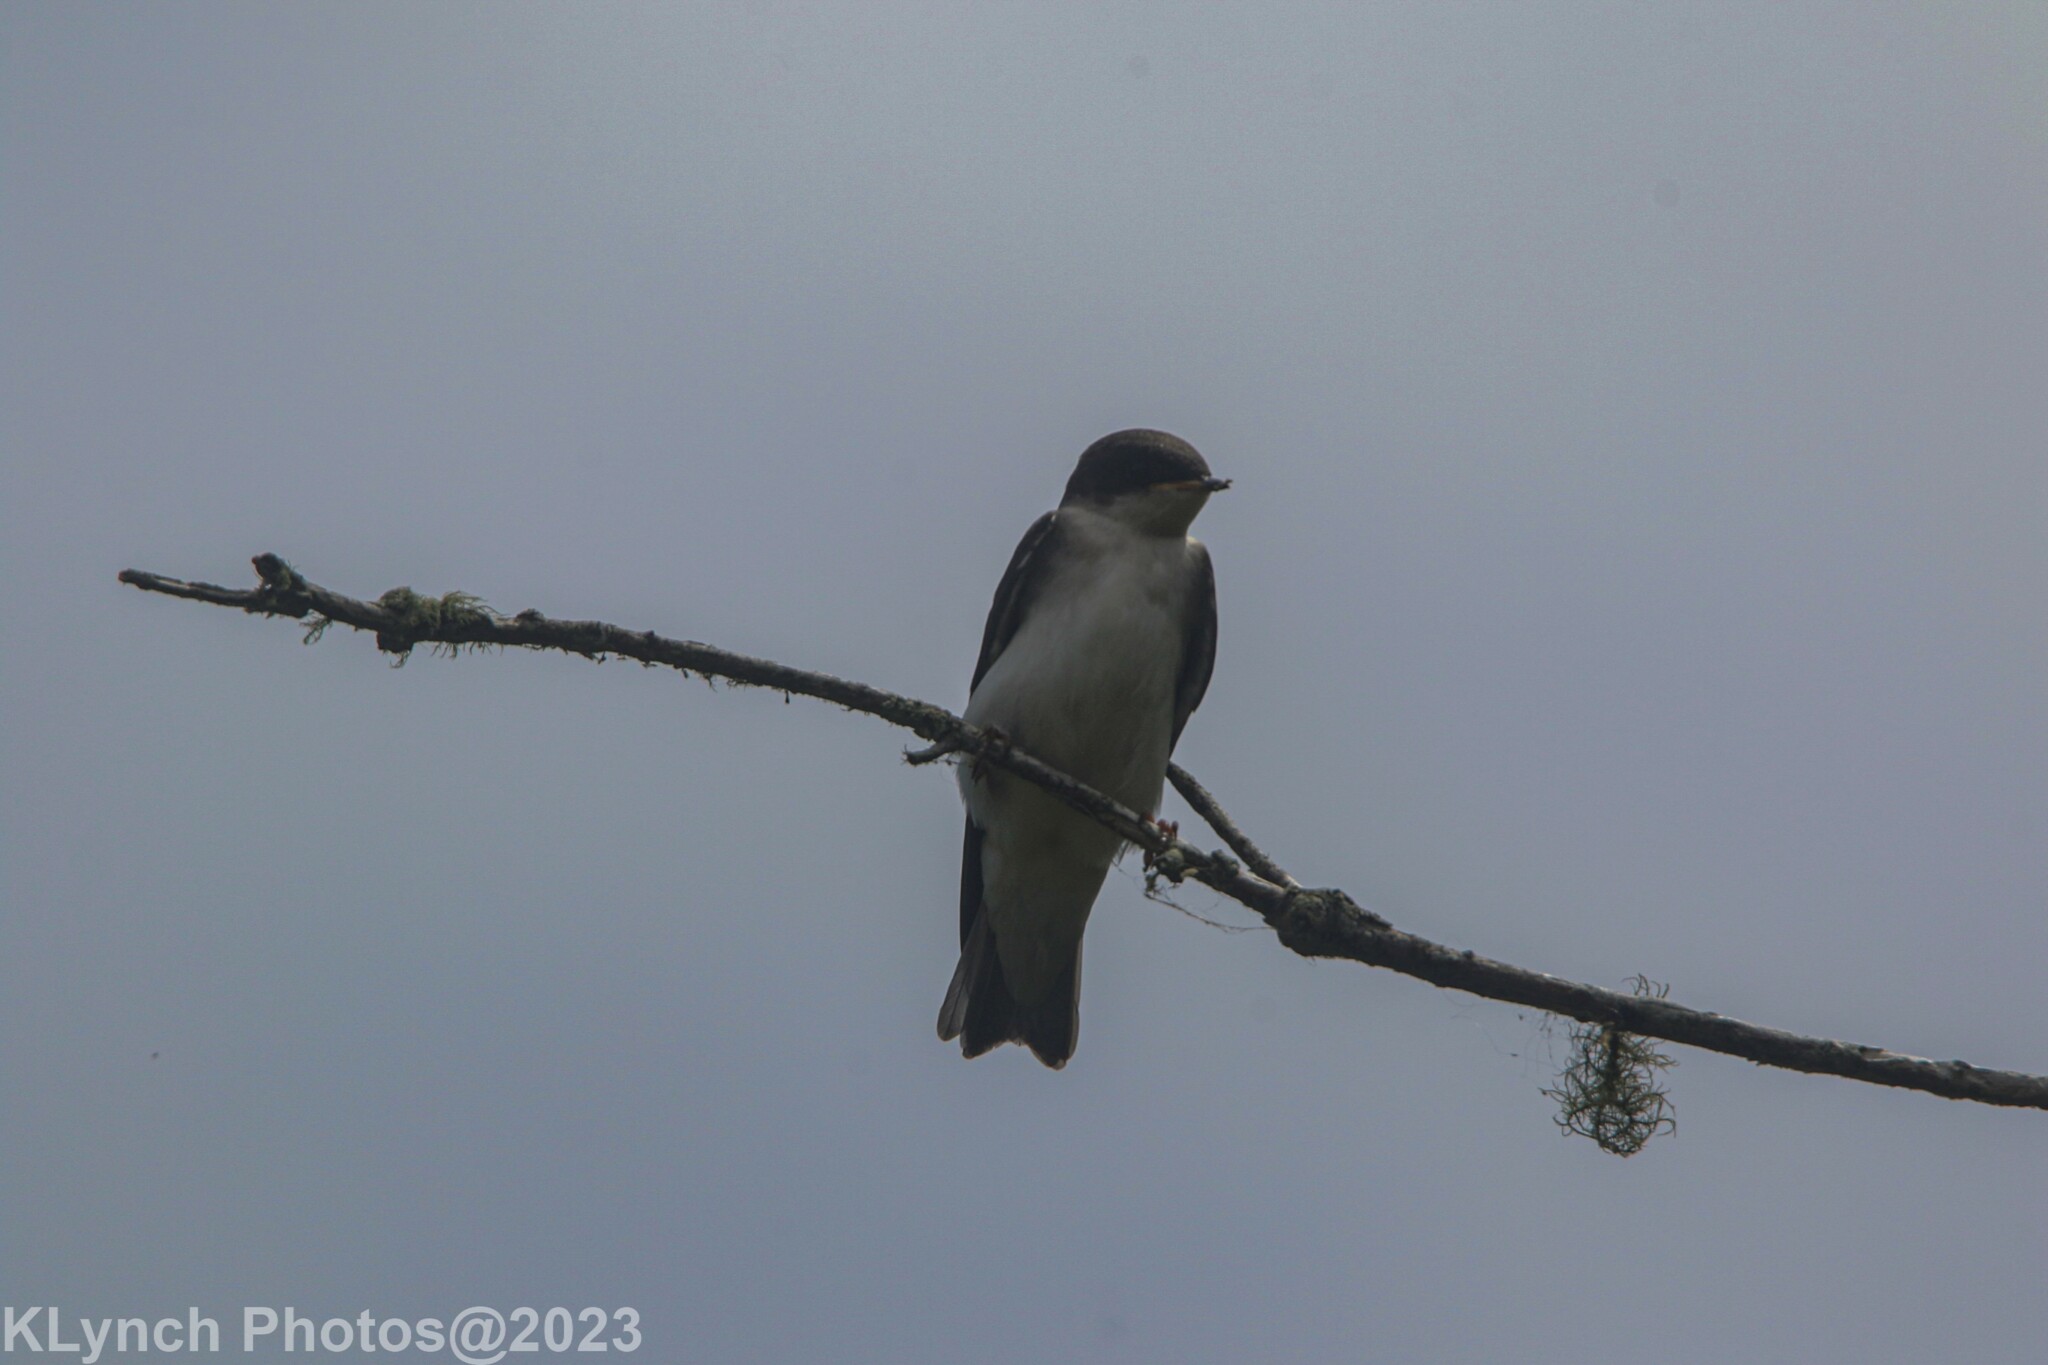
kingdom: Animalia
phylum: Chordata
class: Aves
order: Passeriformes
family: Tyrannidae
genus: Tyrannus
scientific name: Tyrannus tyrannus
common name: Eastern kingbird
